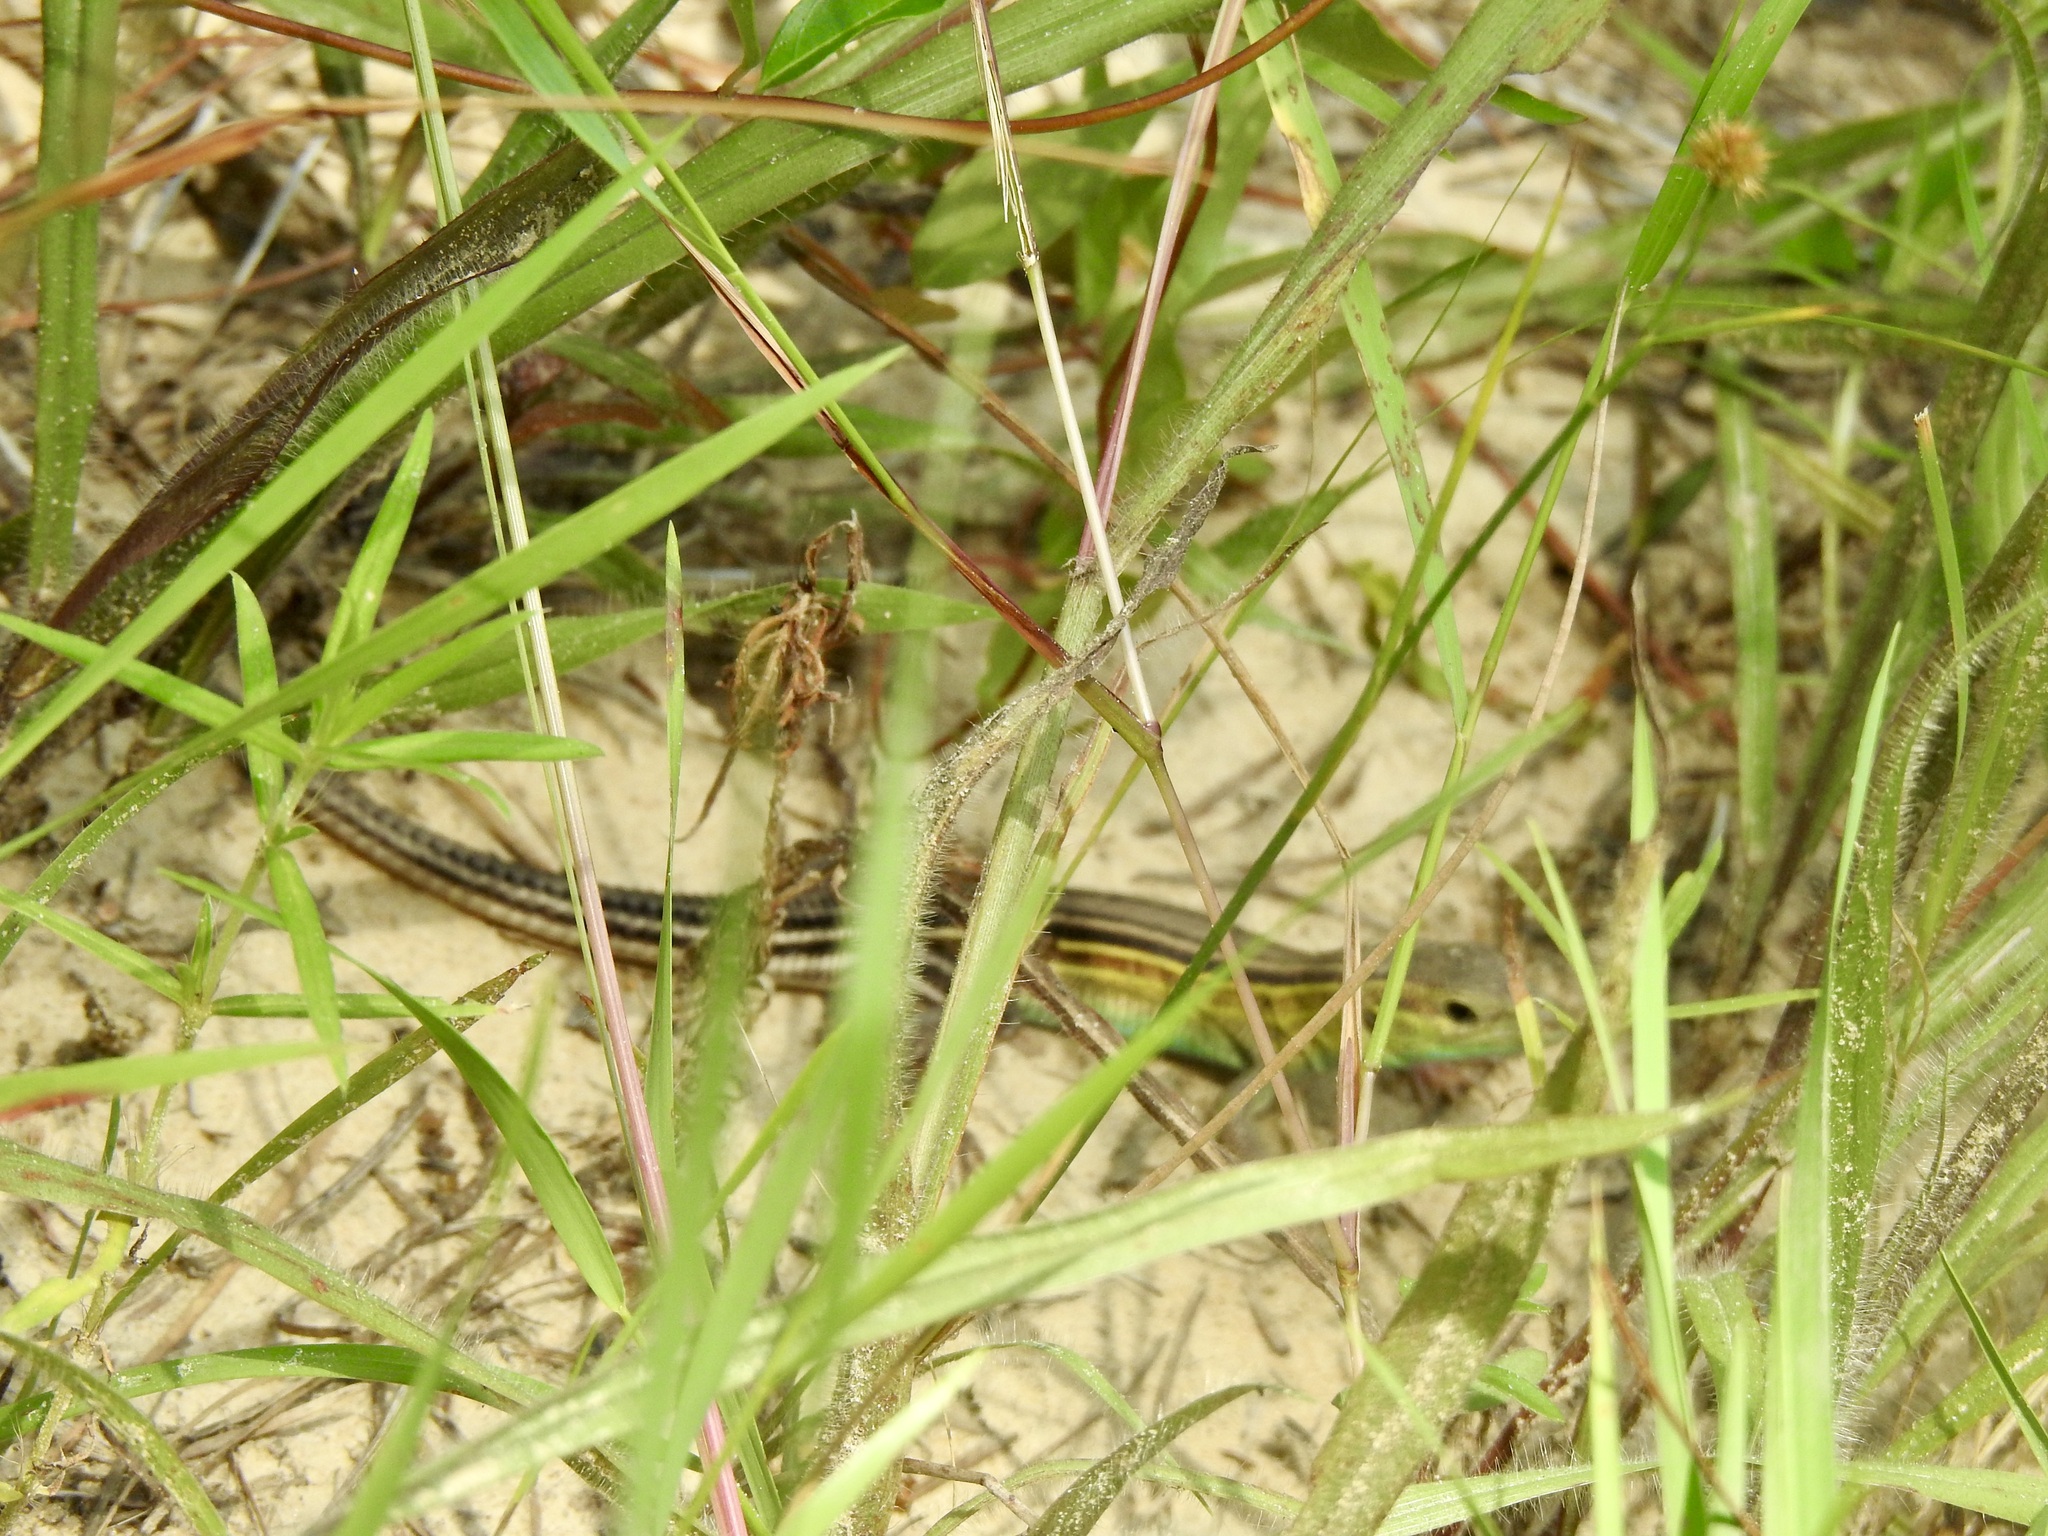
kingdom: Animalia
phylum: Chordata
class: Squamata
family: Teiidae
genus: Aspidoscelis
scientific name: Aspidoscelis sexlineatus
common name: Six-lined racerunner
